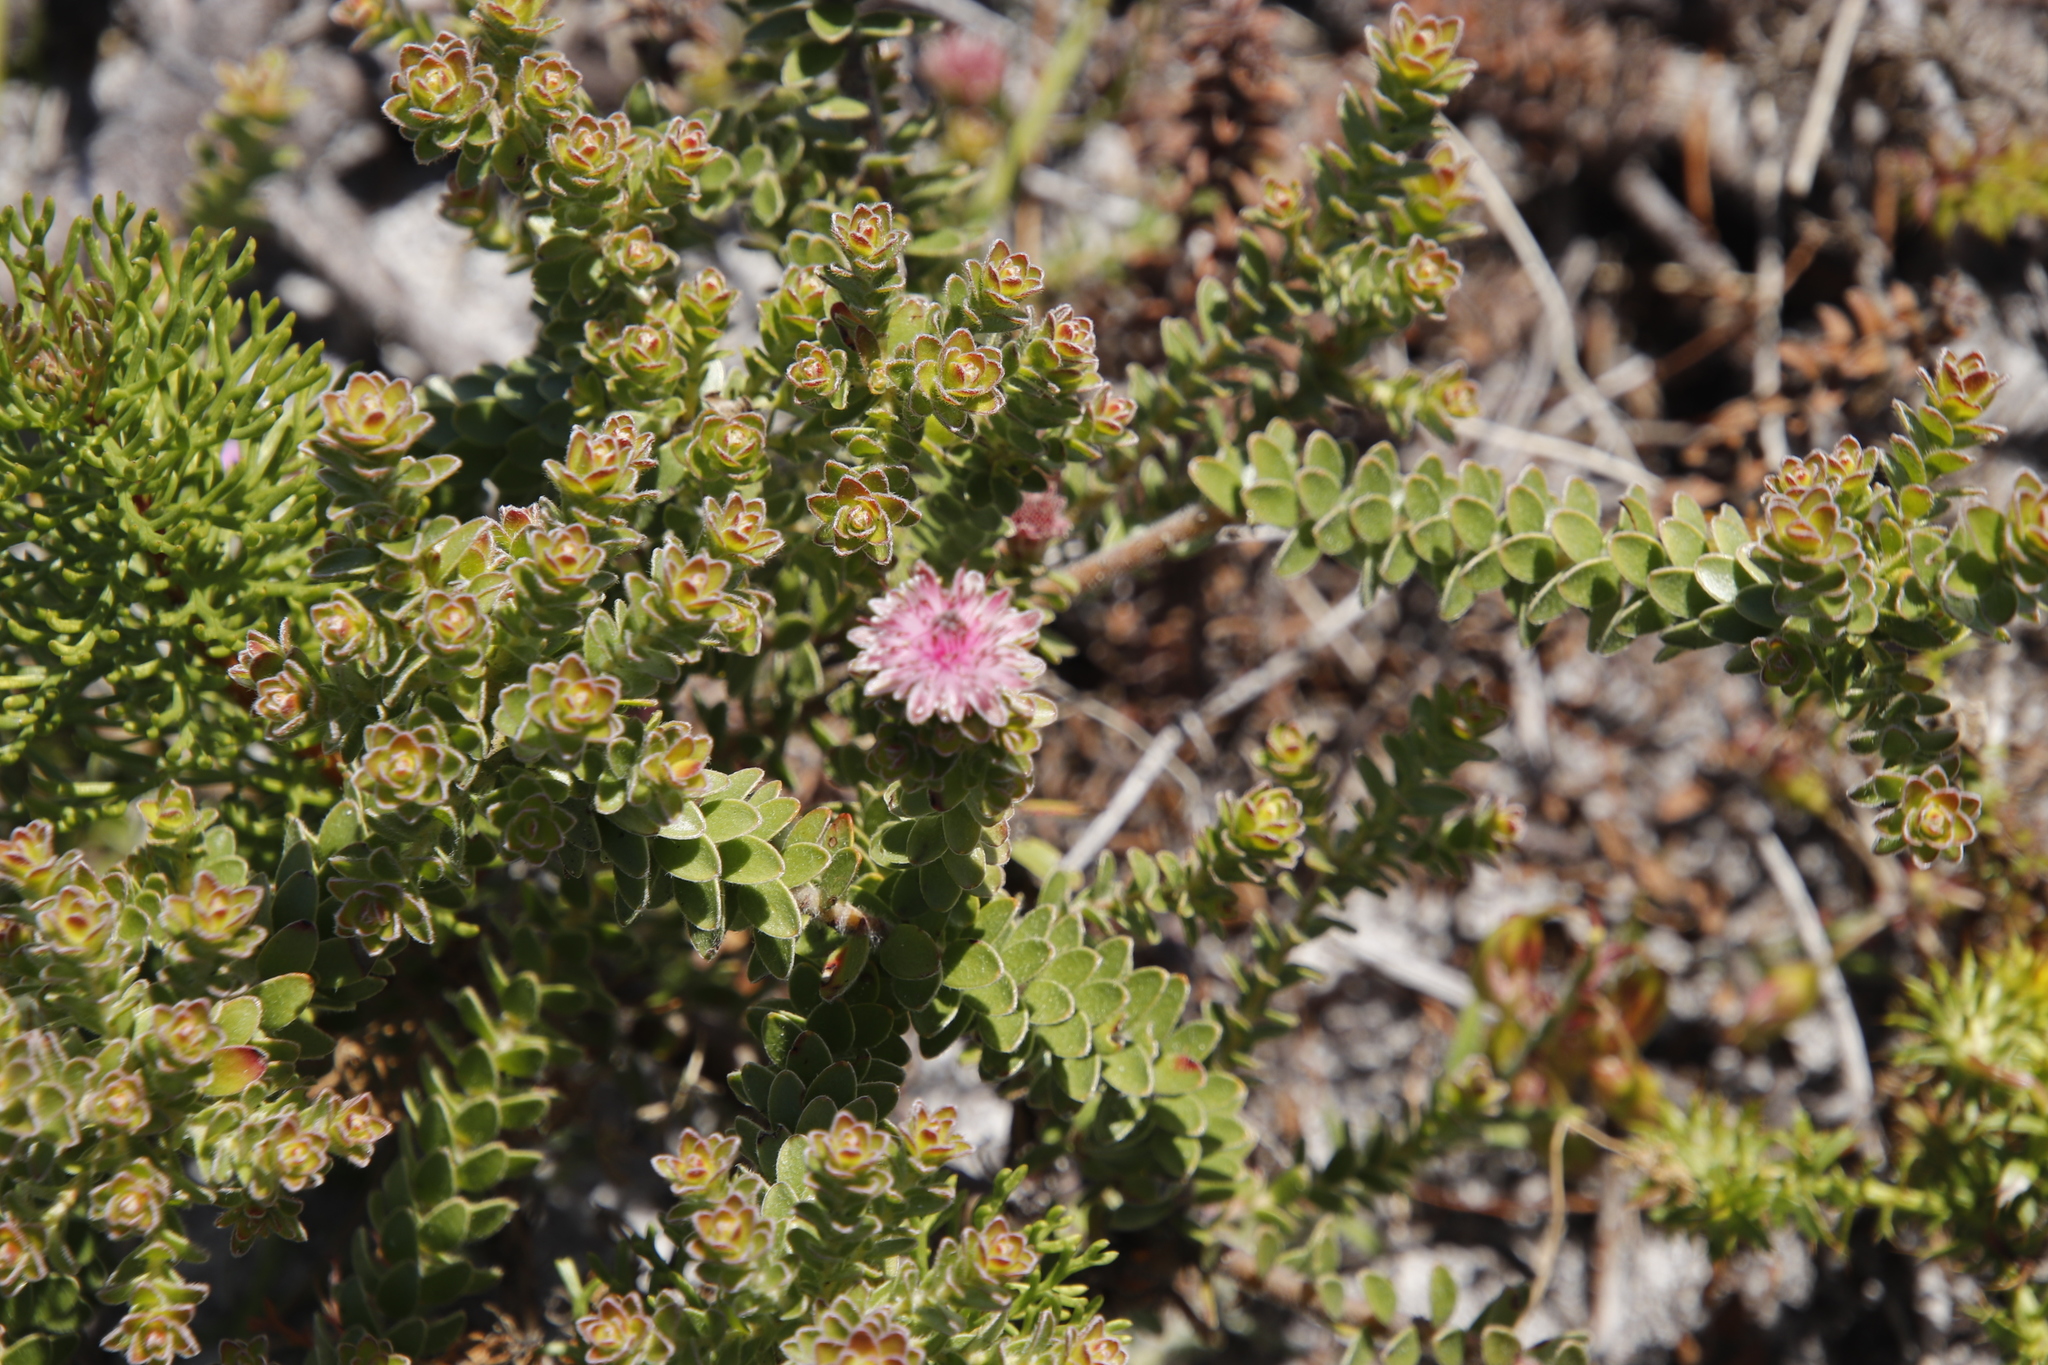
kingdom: Plantae
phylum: Tracheophyta
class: Magnoliopsida
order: Proteales
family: Proteaceae
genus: Diastella
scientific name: Diastella divaricata
